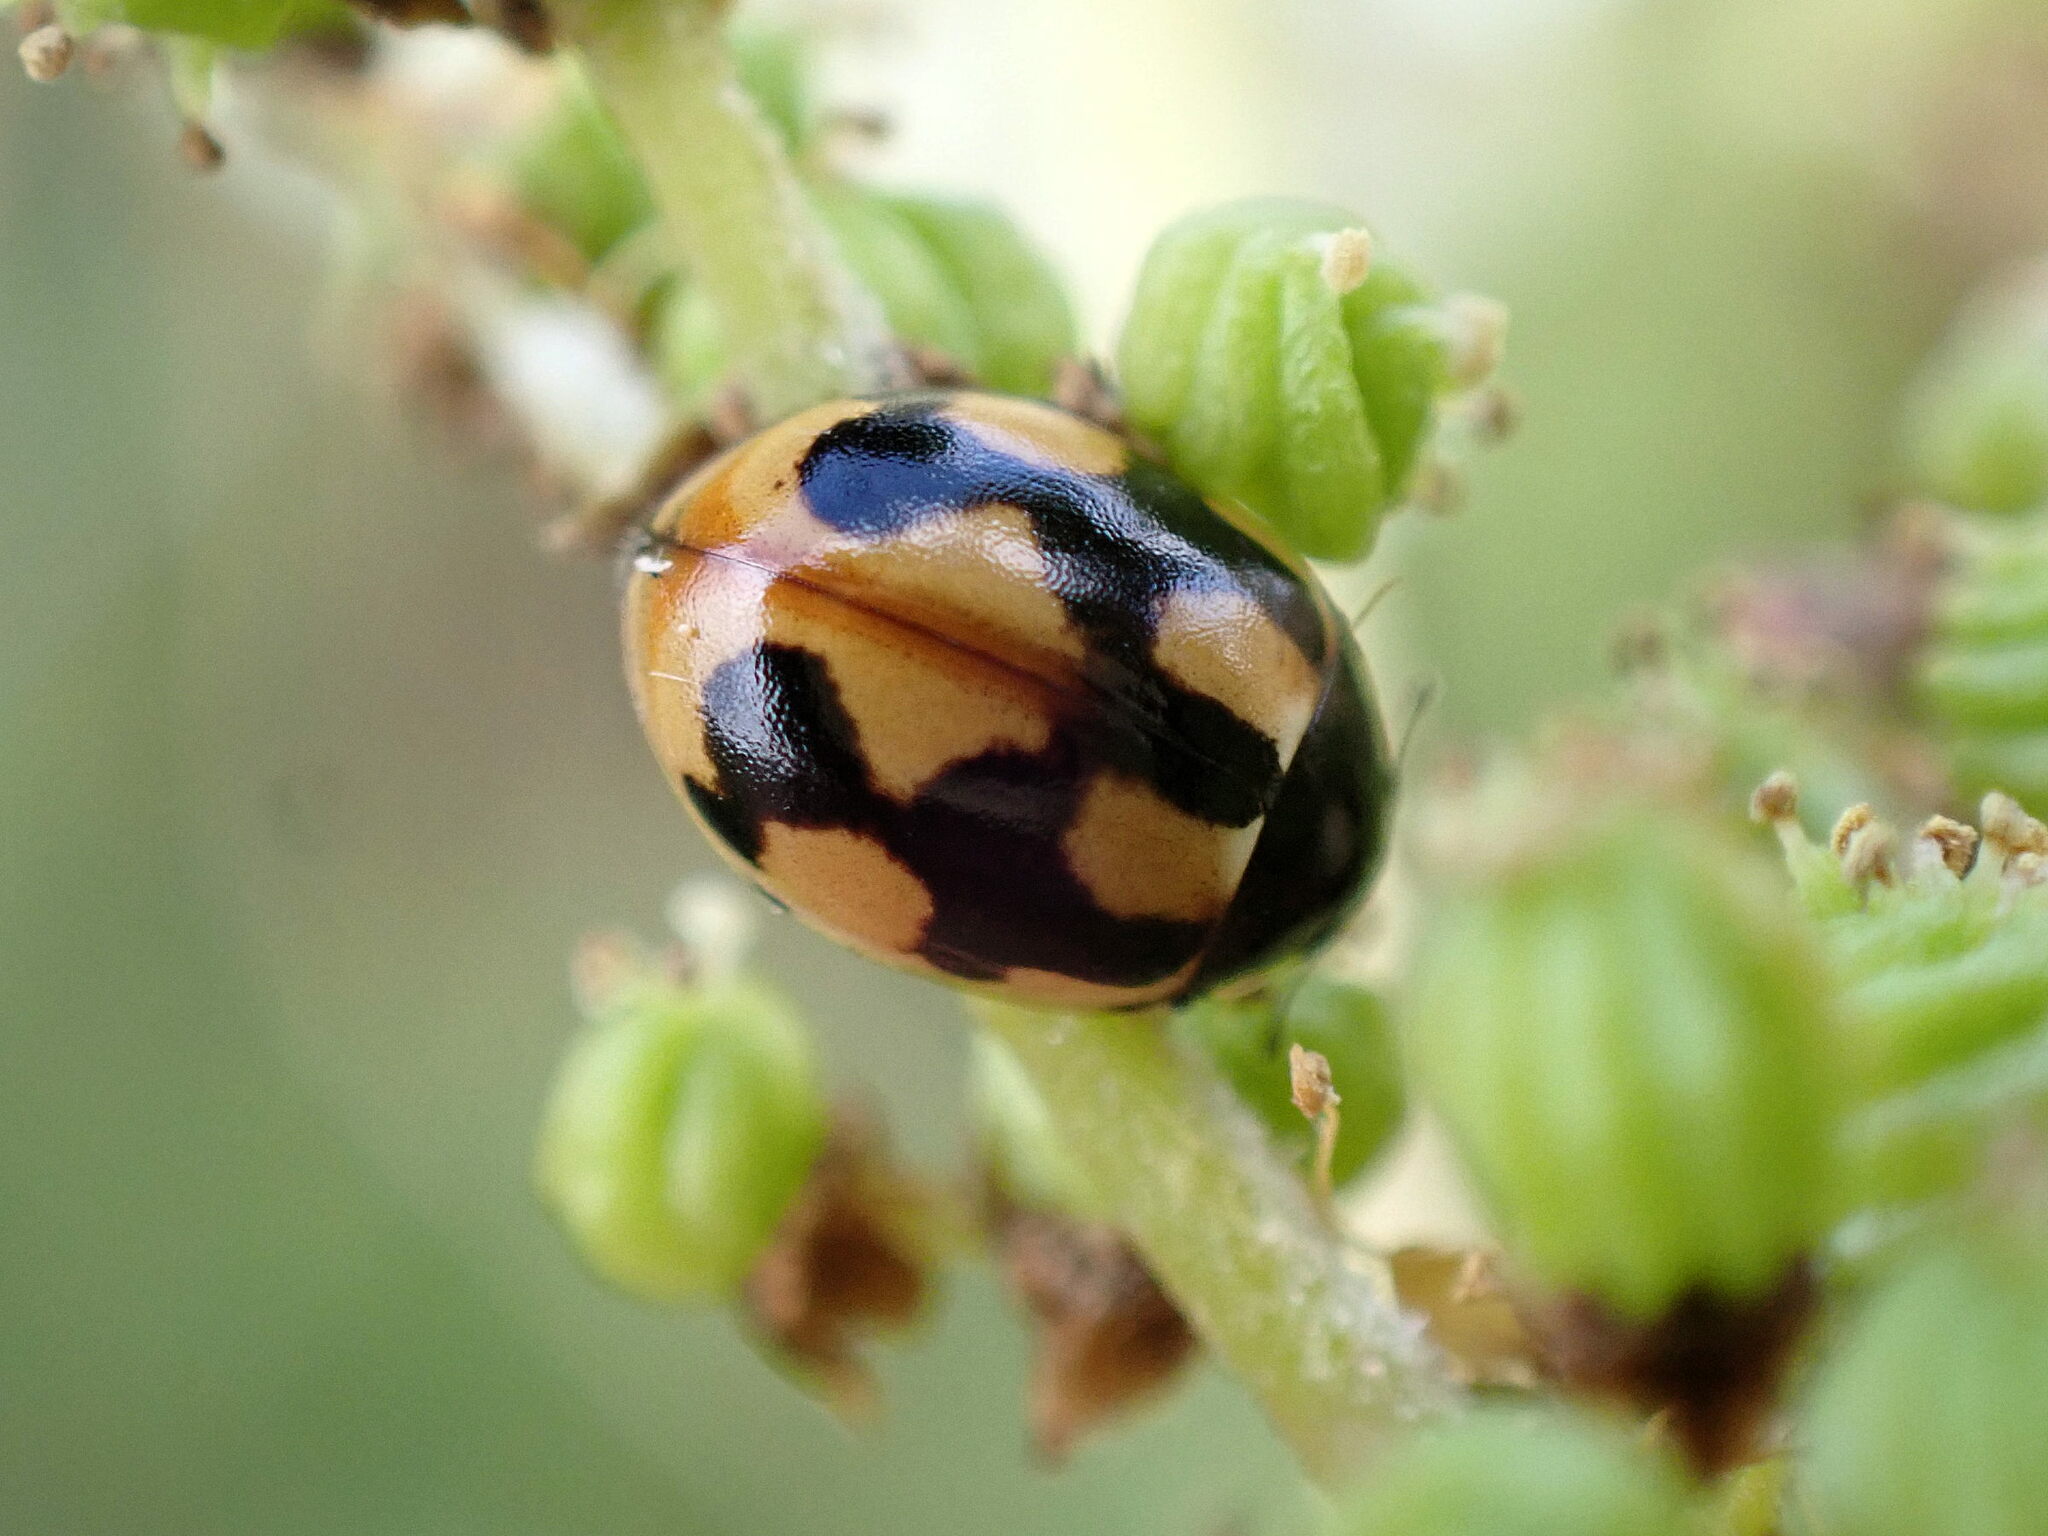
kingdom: Animalia
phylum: Arthropoda
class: Insecta
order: Coleoptera
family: Coccinellidae
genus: Coccinella
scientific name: Coccinella hieroglyphica
